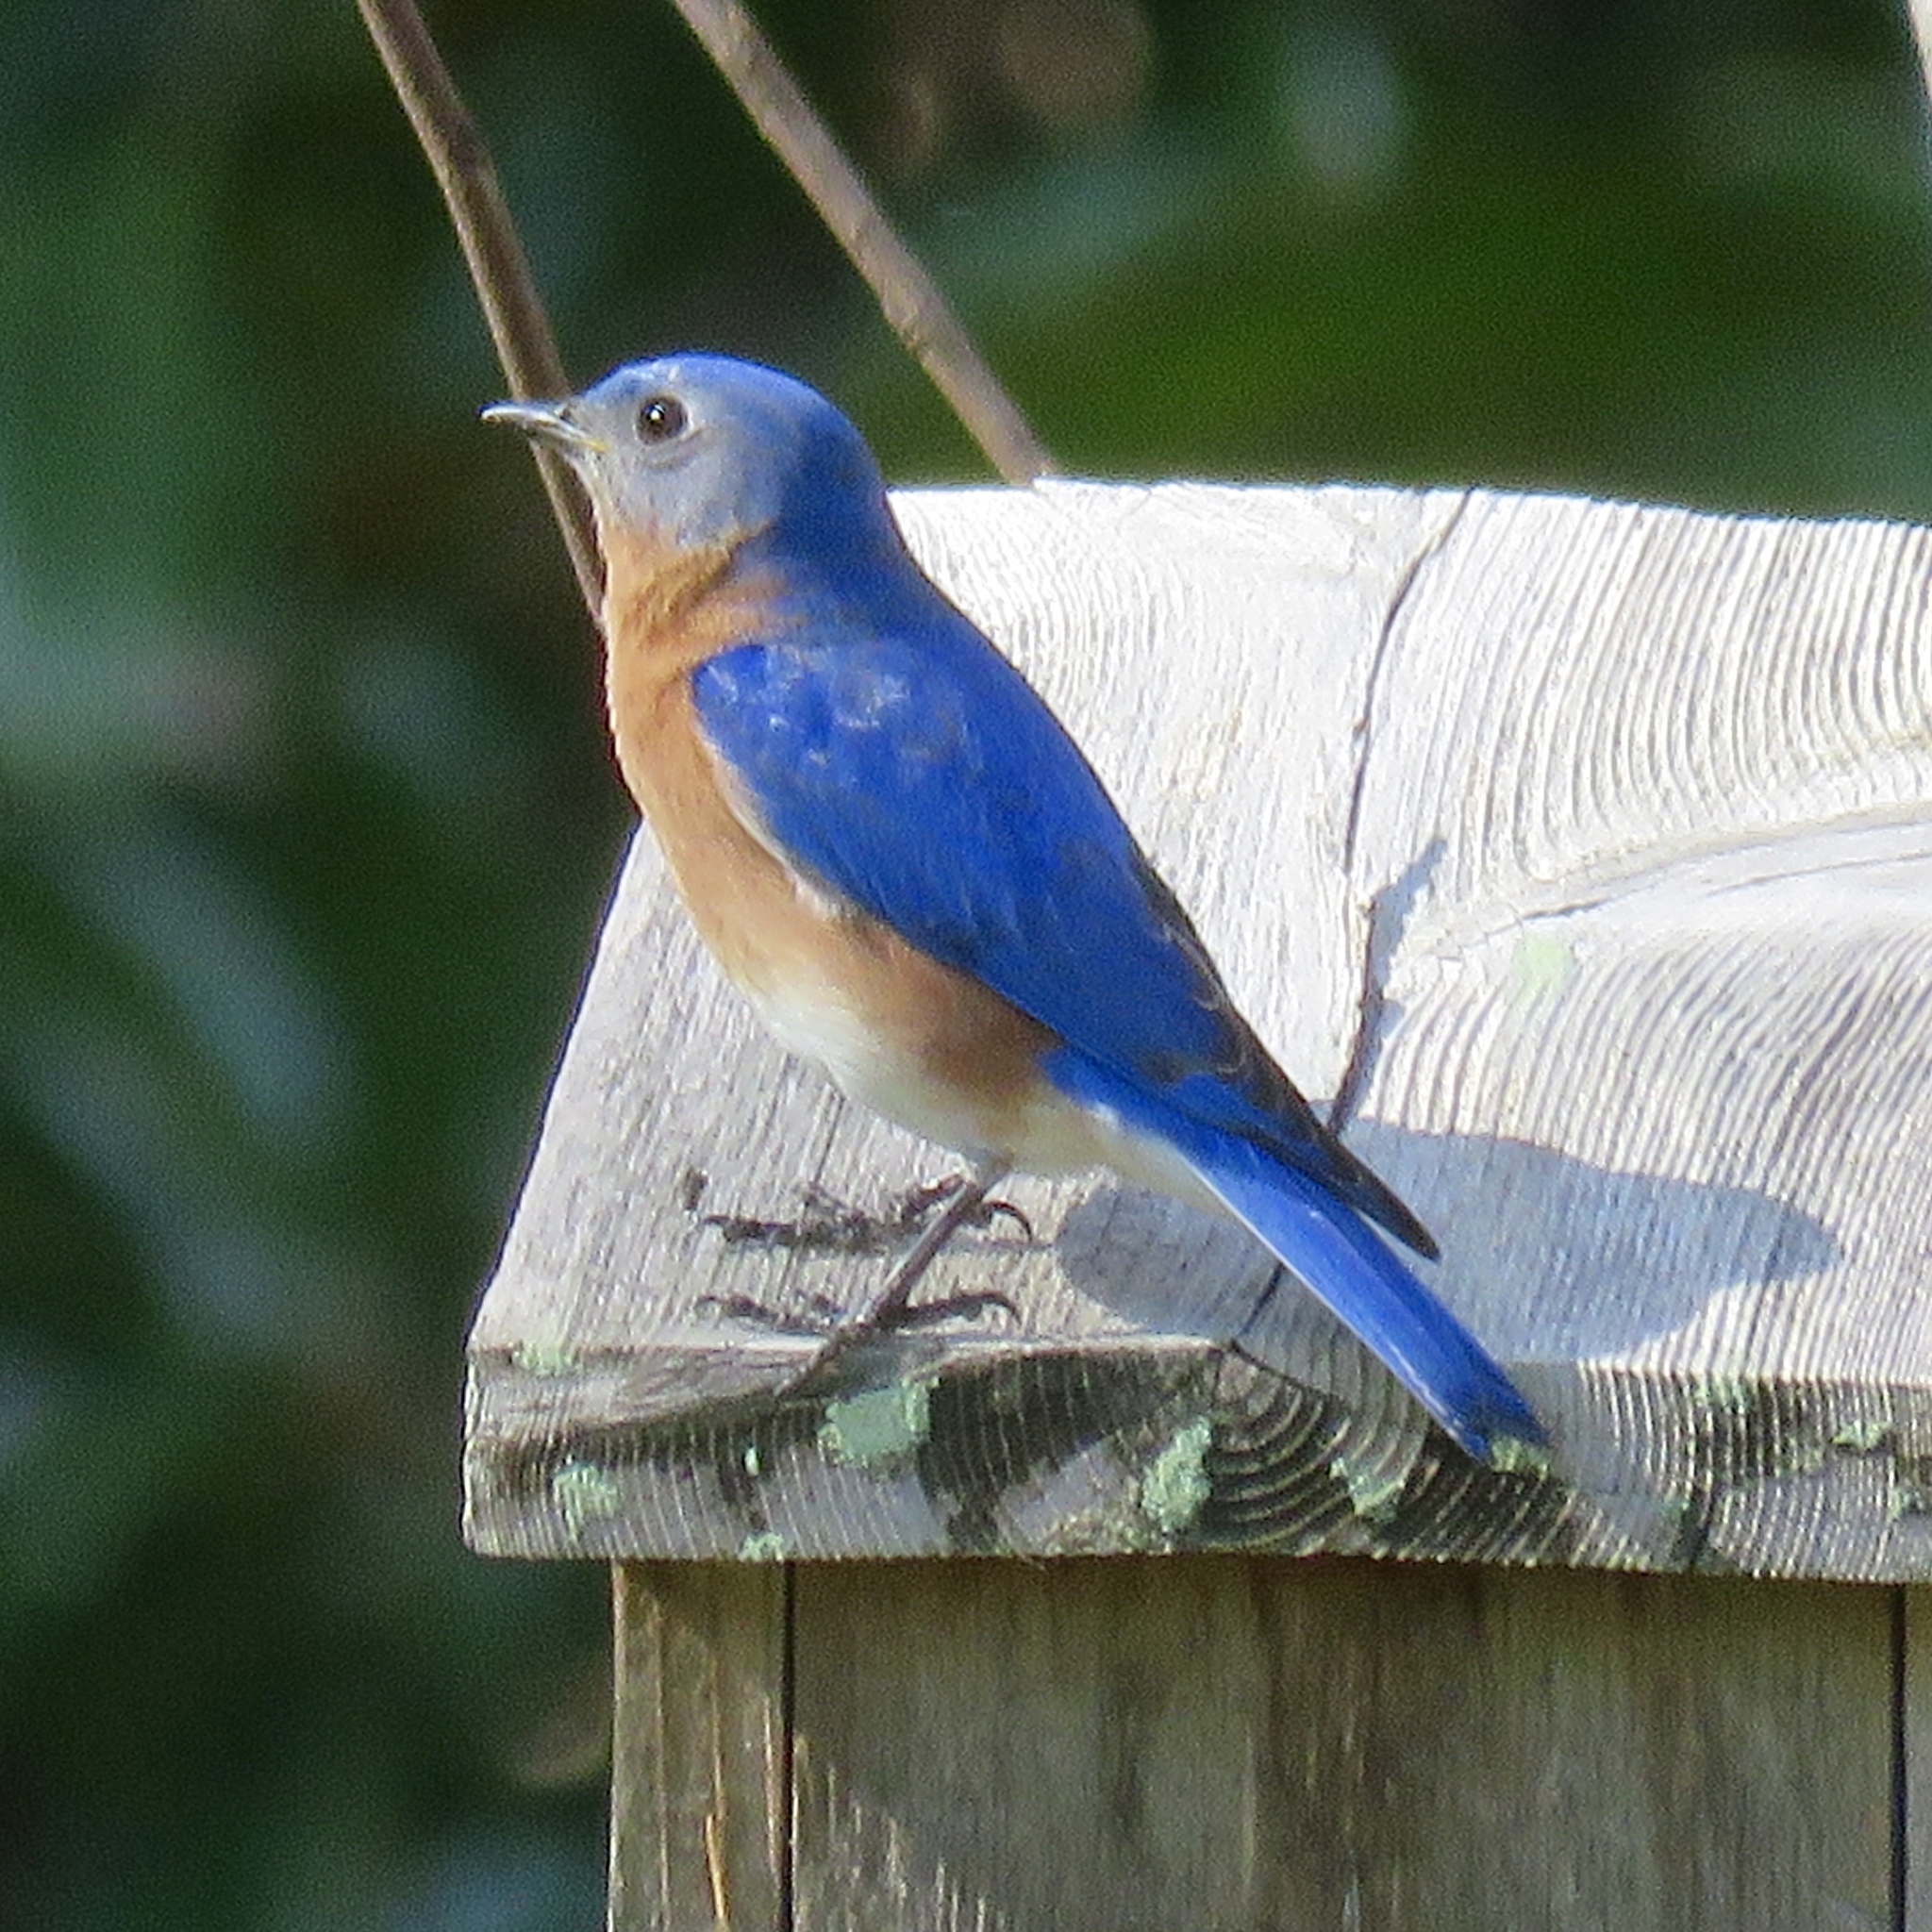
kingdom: Animalia
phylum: Chordata
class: Aves
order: Passeriformes
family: Turdidae
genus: Sialia
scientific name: Sialia sialis
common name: Eastern bluebird
